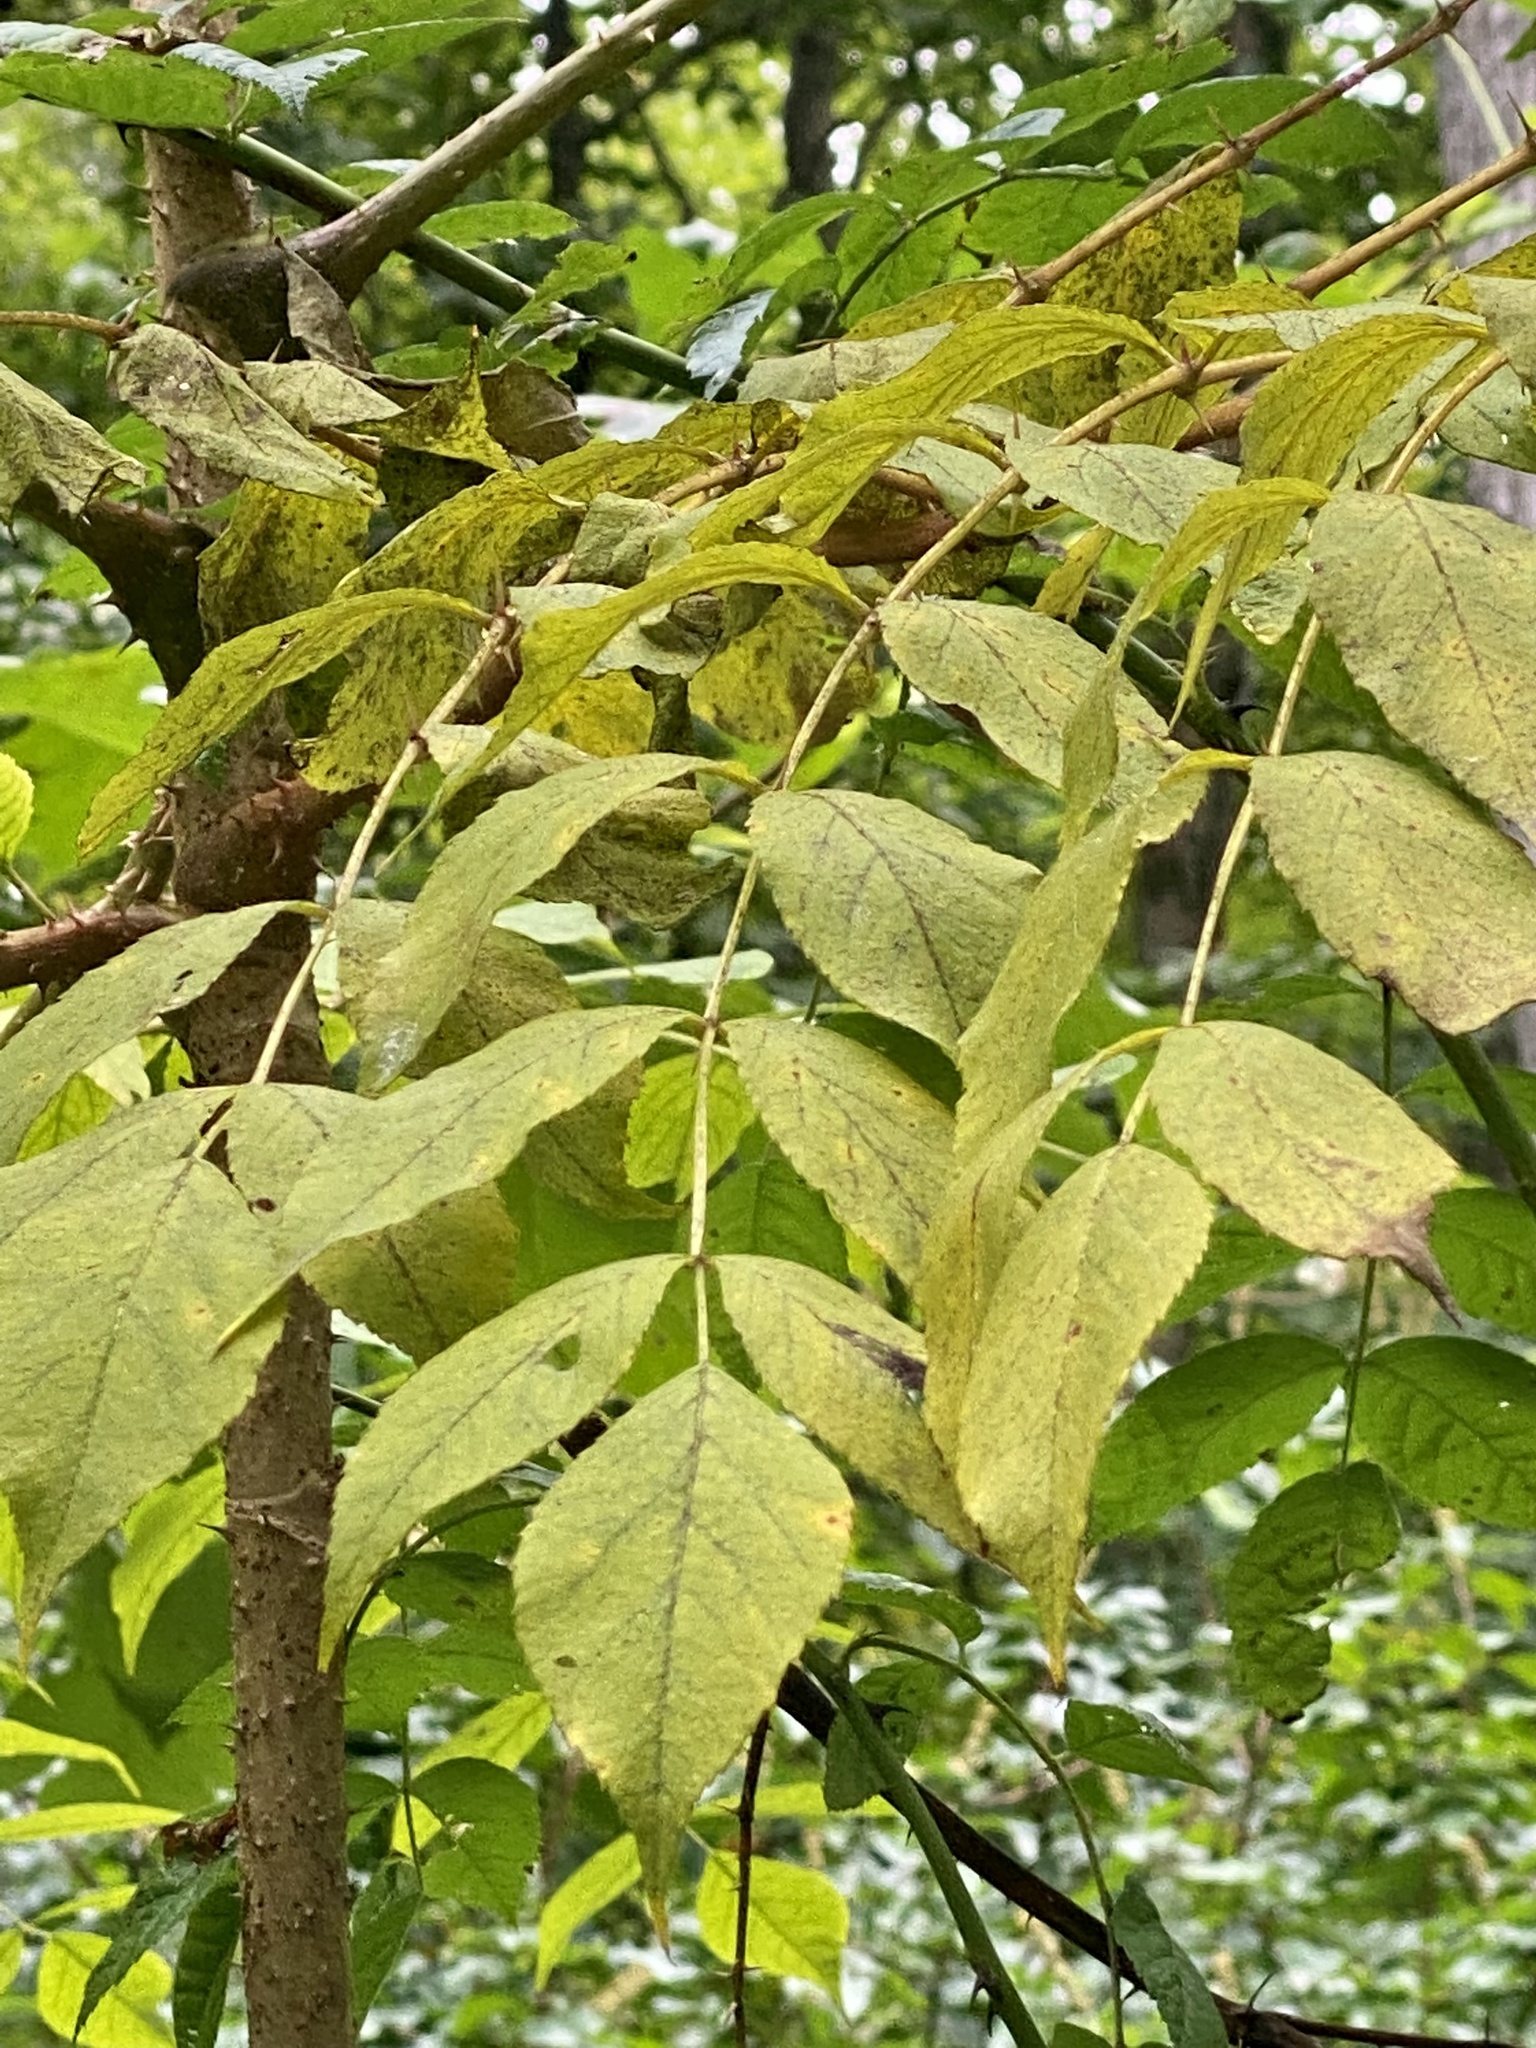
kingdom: Plantae
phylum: Tracheophyta
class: Magnoliopsida
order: Apiales
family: Araliaceae
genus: Aralia
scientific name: Aralia elata
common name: Japanese angelica-tree
